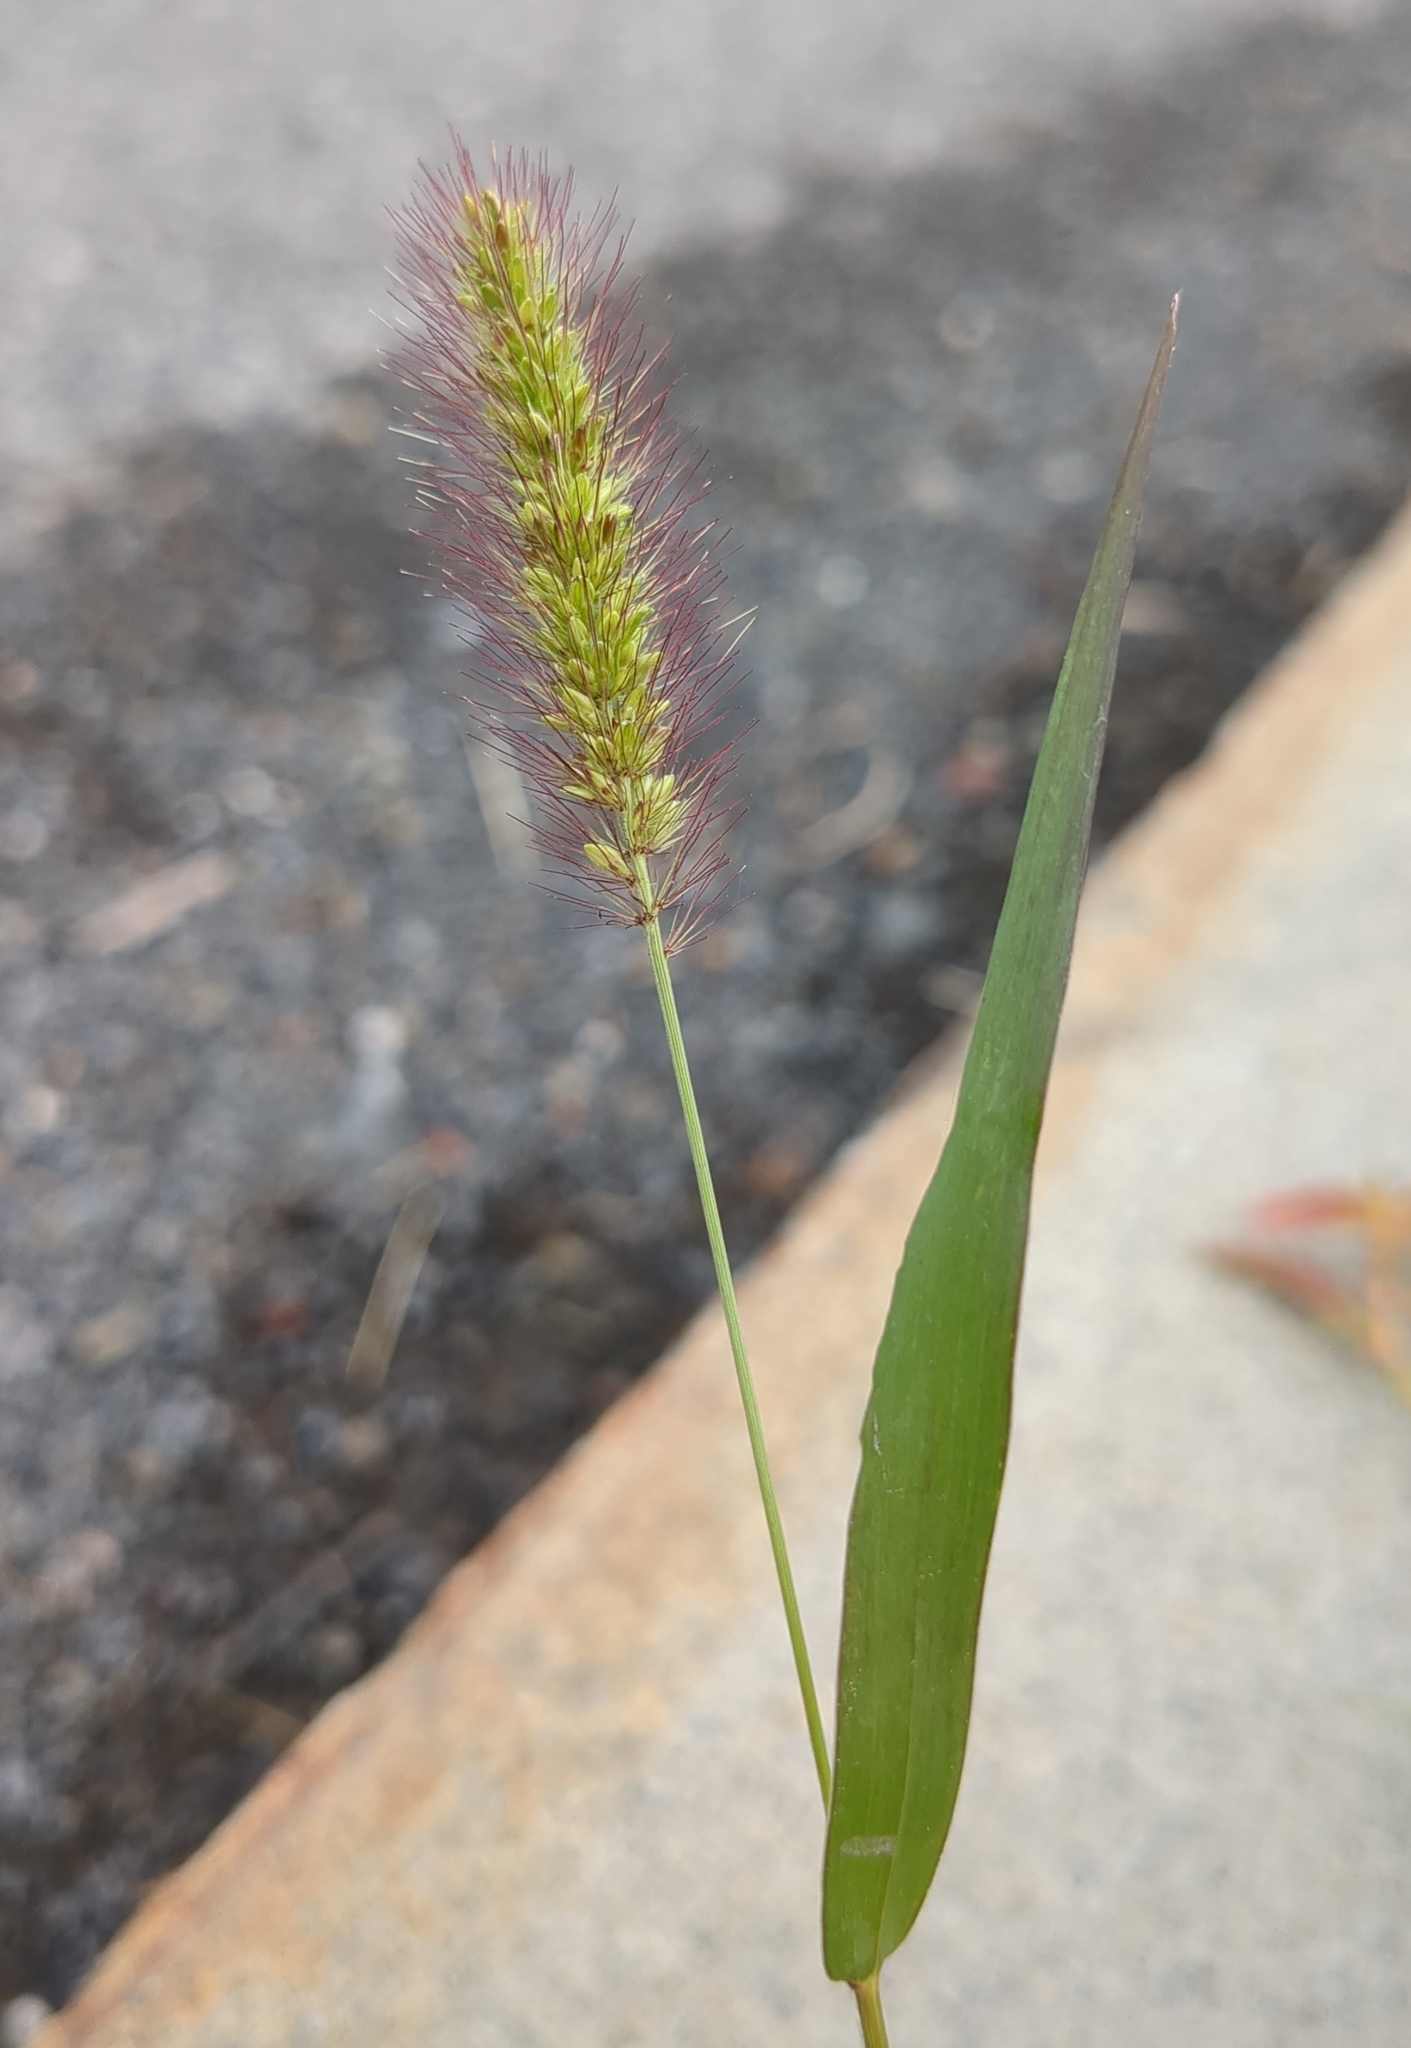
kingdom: Plantae
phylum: Tracheophyta
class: Liliopsida
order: Poales
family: Poaceae
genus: Setaria
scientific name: Setaria pumila
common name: Yellow bristle-grass
